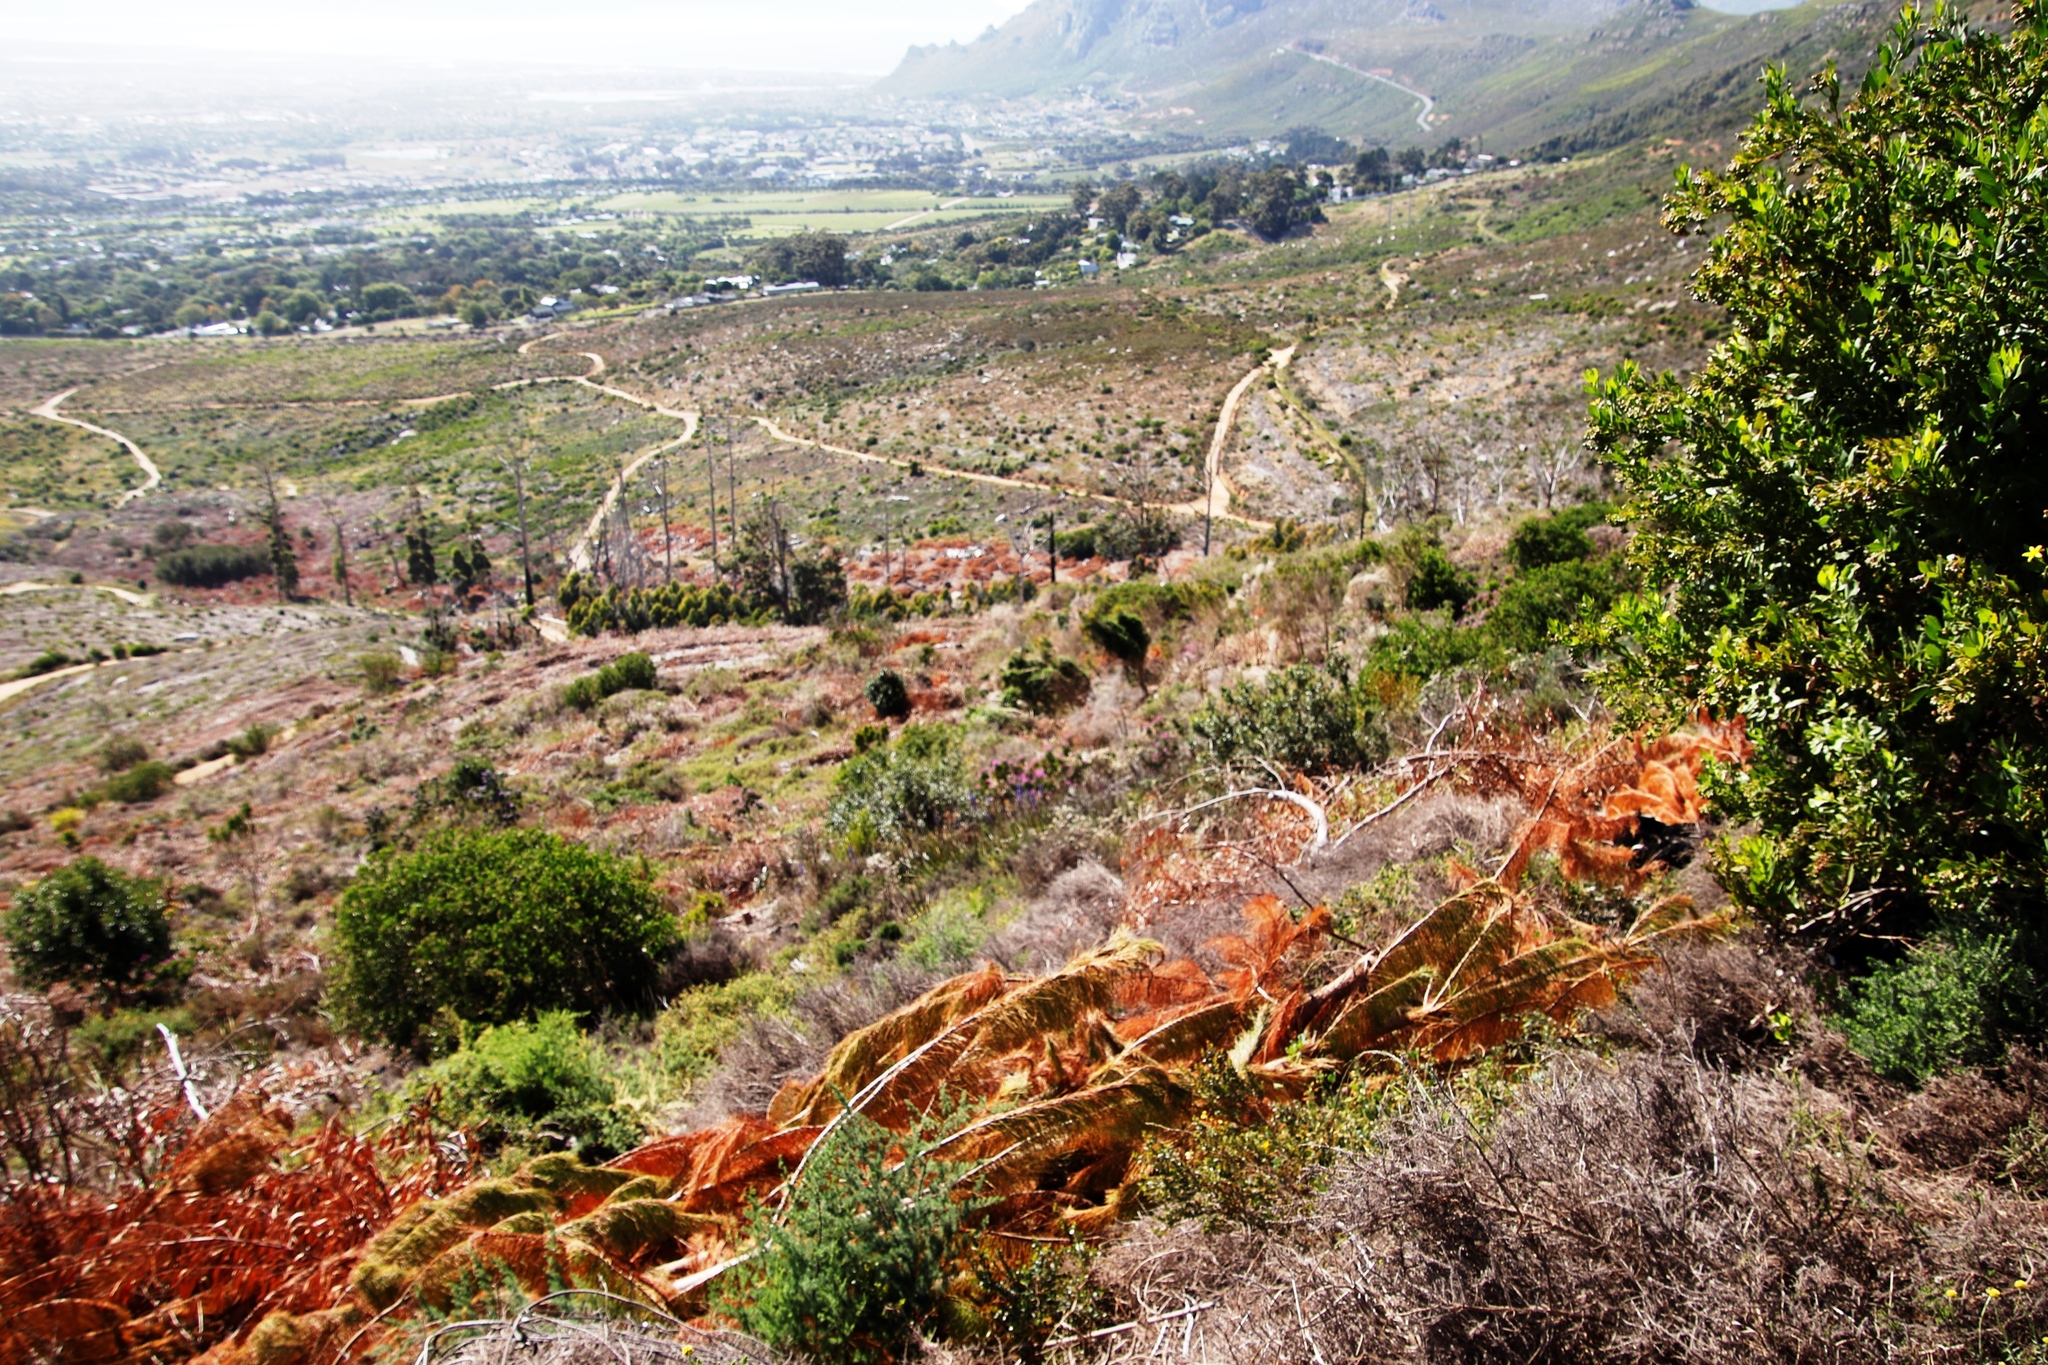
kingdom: Plantae
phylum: Tracheophyta
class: Liliopsida
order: Asparagales
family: Iridaceae
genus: Aristea
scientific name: Aristea capitata
